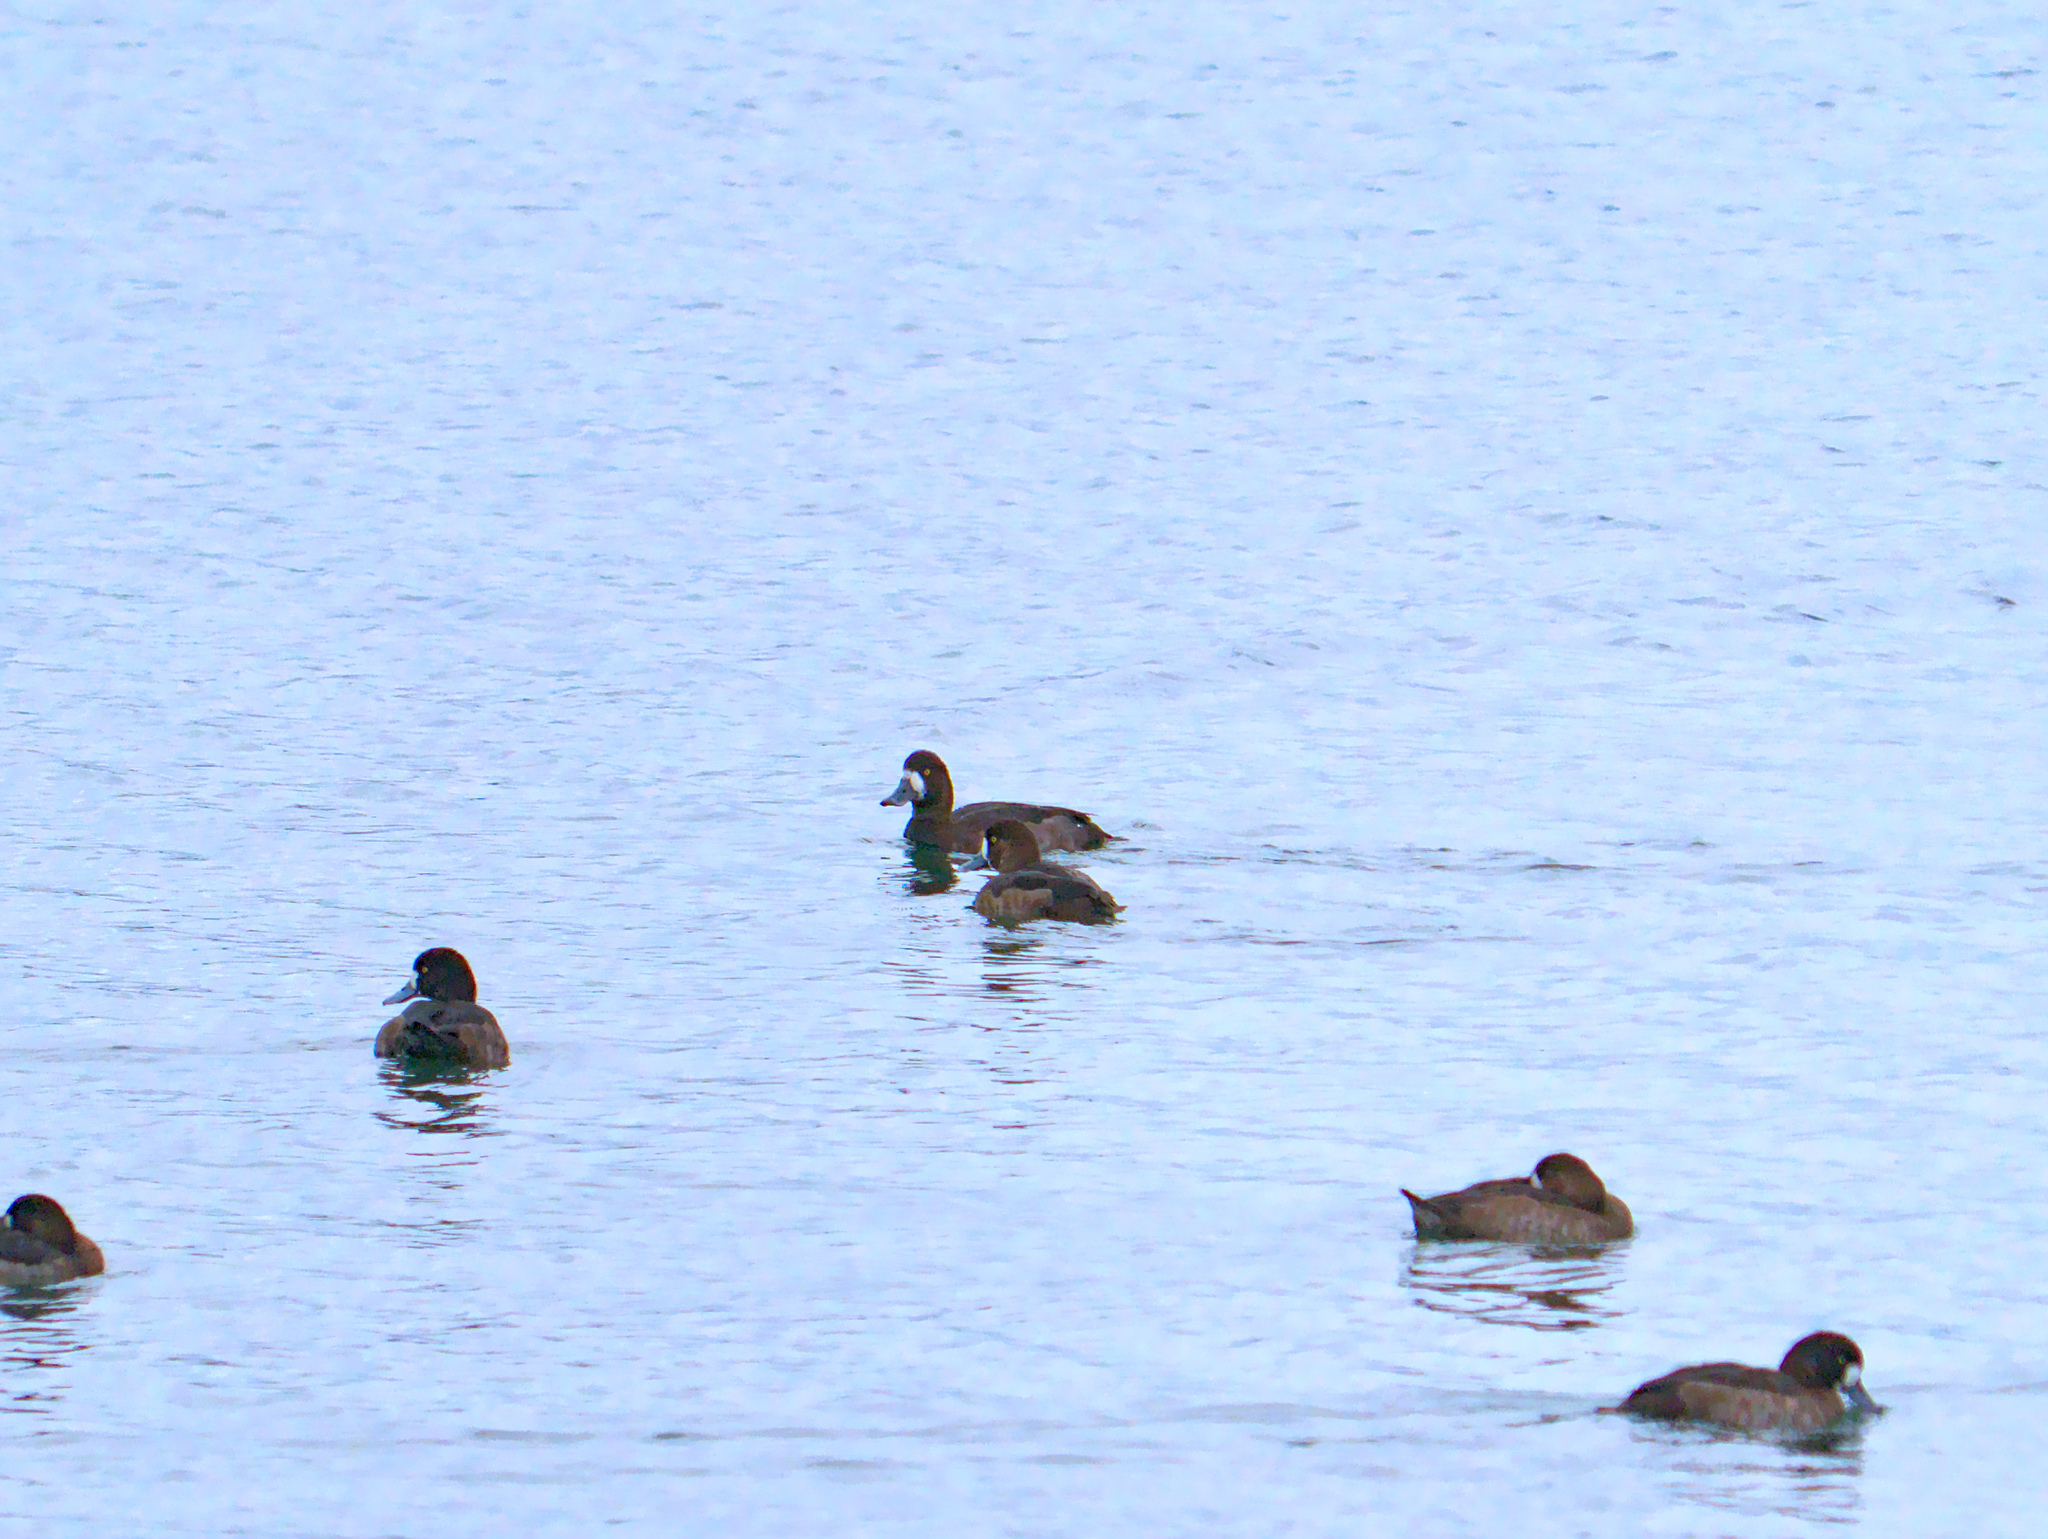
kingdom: Animalia
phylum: Chordata
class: Aves
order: Anseriformes
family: Anatidae
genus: Aythya
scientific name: Aythya marila
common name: Greater scaup
